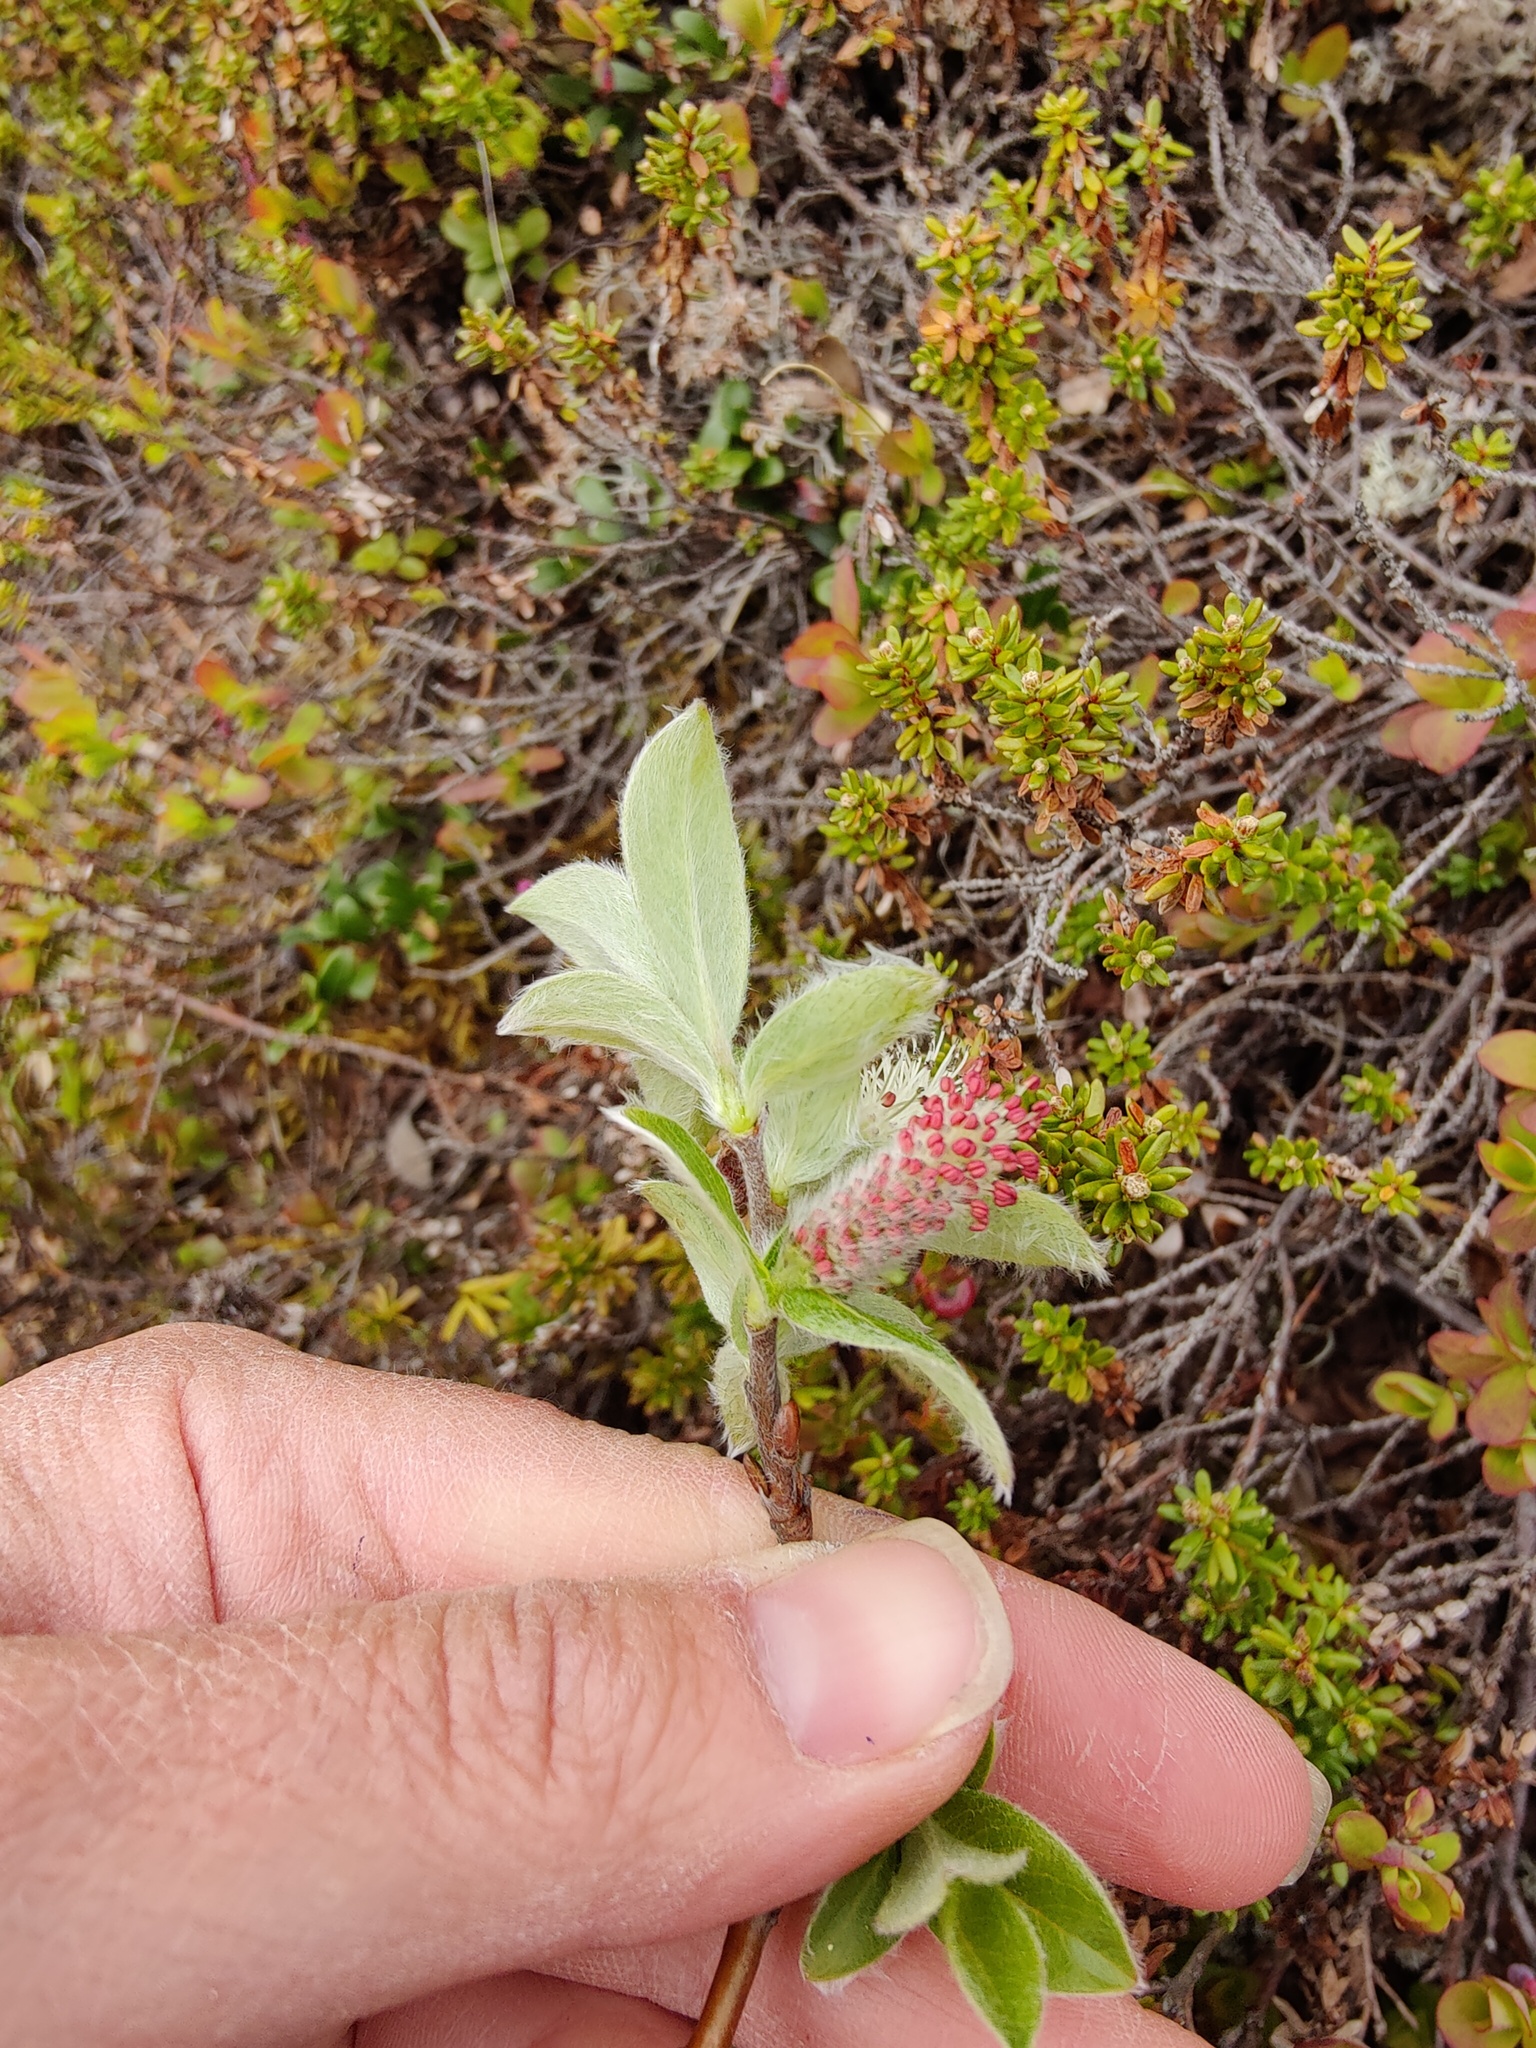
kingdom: Plantae
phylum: Tracheophyta
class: Magnoliopsida
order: Malpighiales
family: Salicaceae
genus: Salix
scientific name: Salix glauca
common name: Glaucous willow
